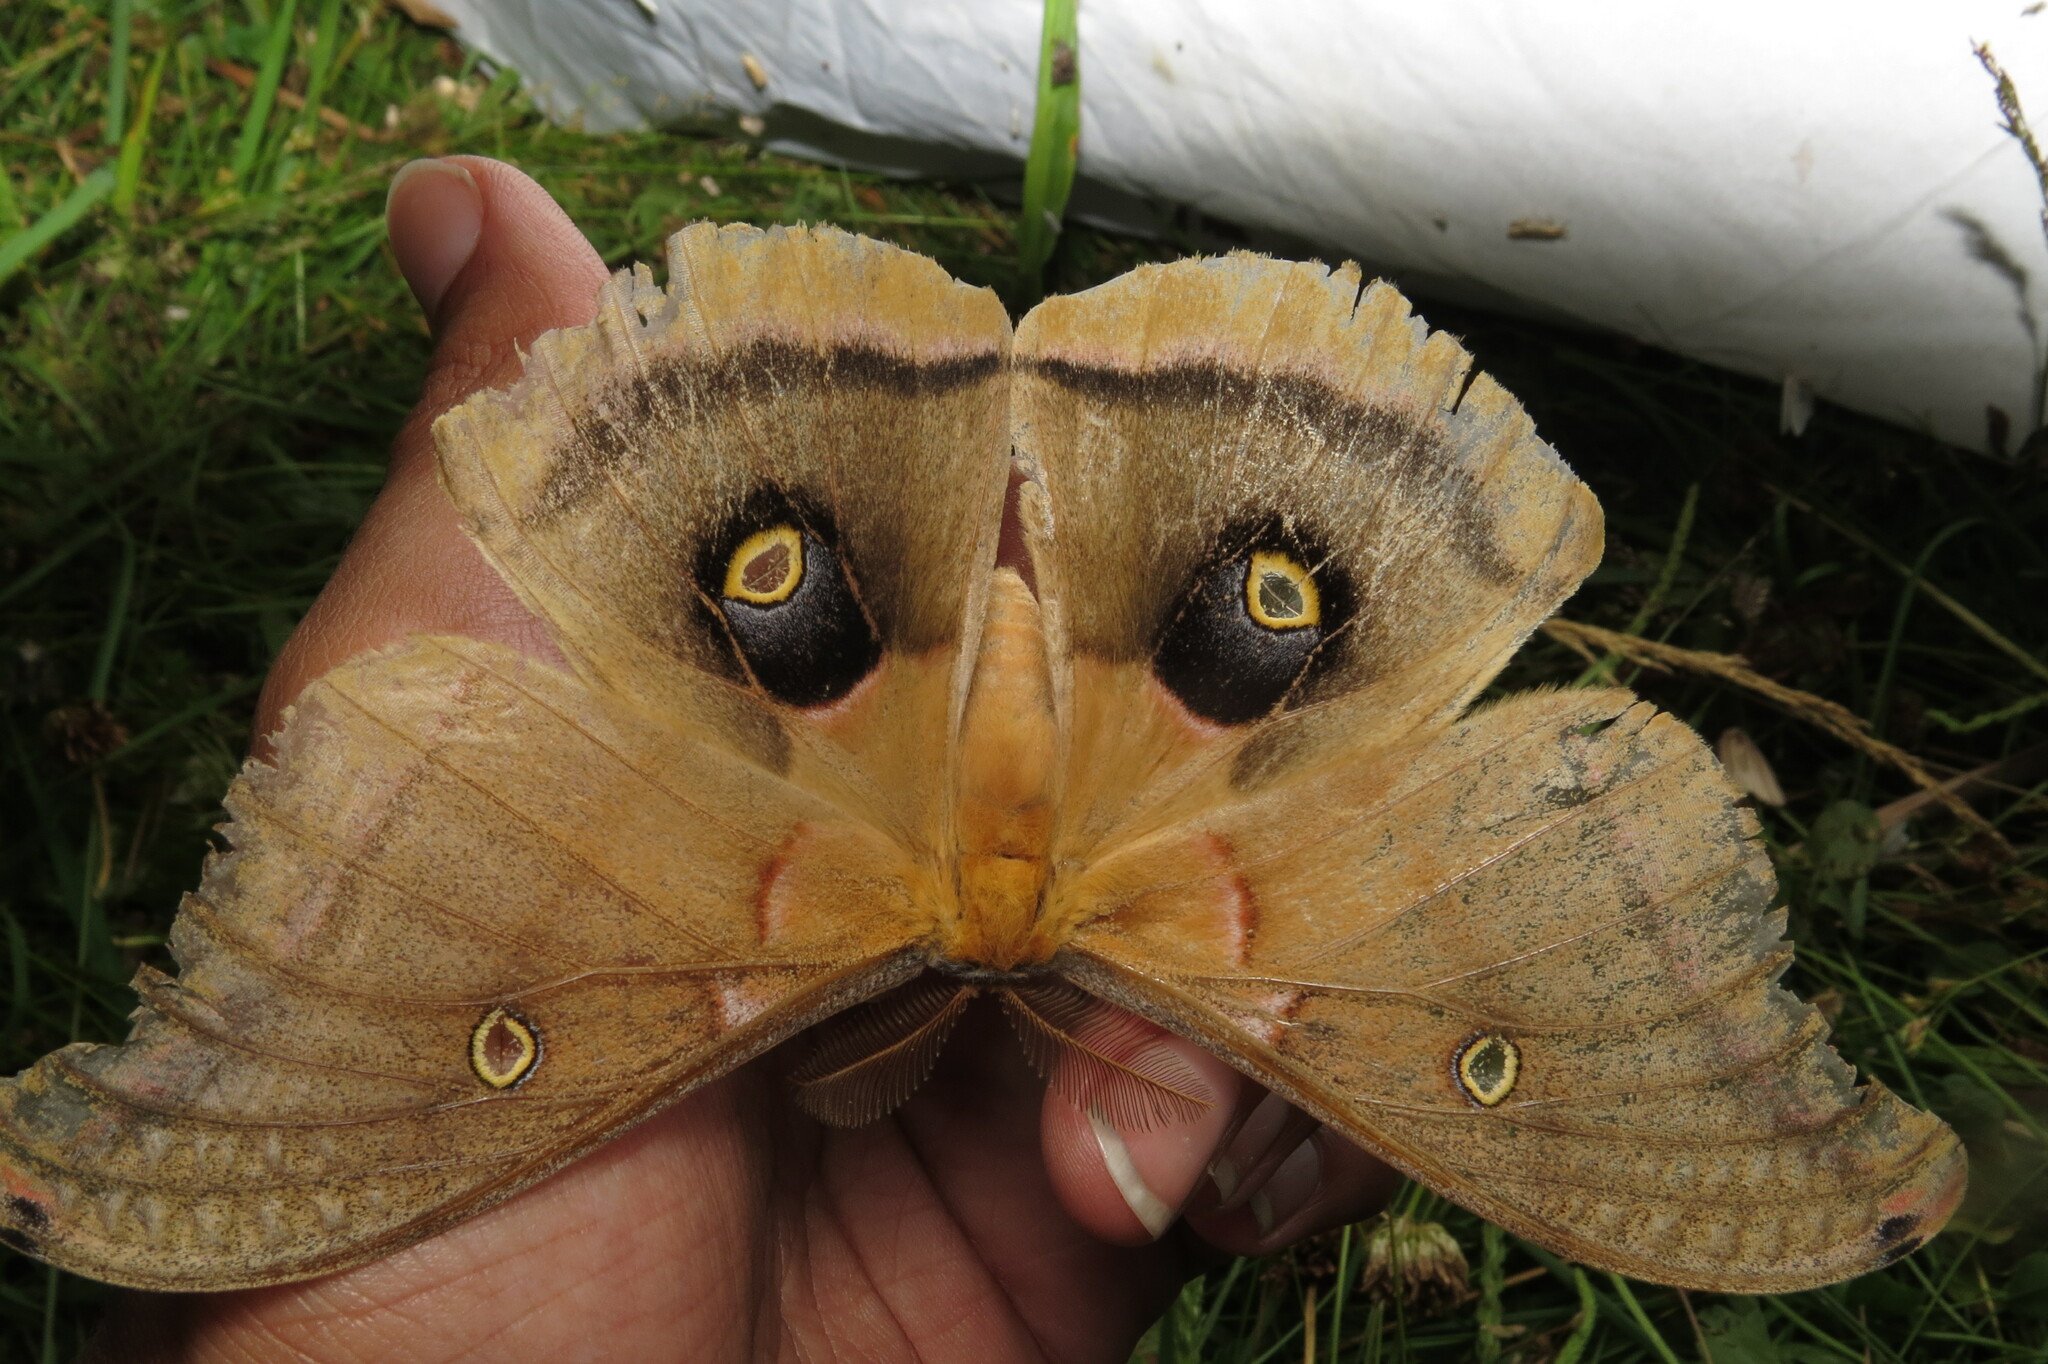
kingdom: Animalia
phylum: Arthropoda
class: Insecta
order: Lepidoptera
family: Saturniidae
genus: Antheraea
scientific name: Antheraea polyphemus
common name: Polyphemus moth
